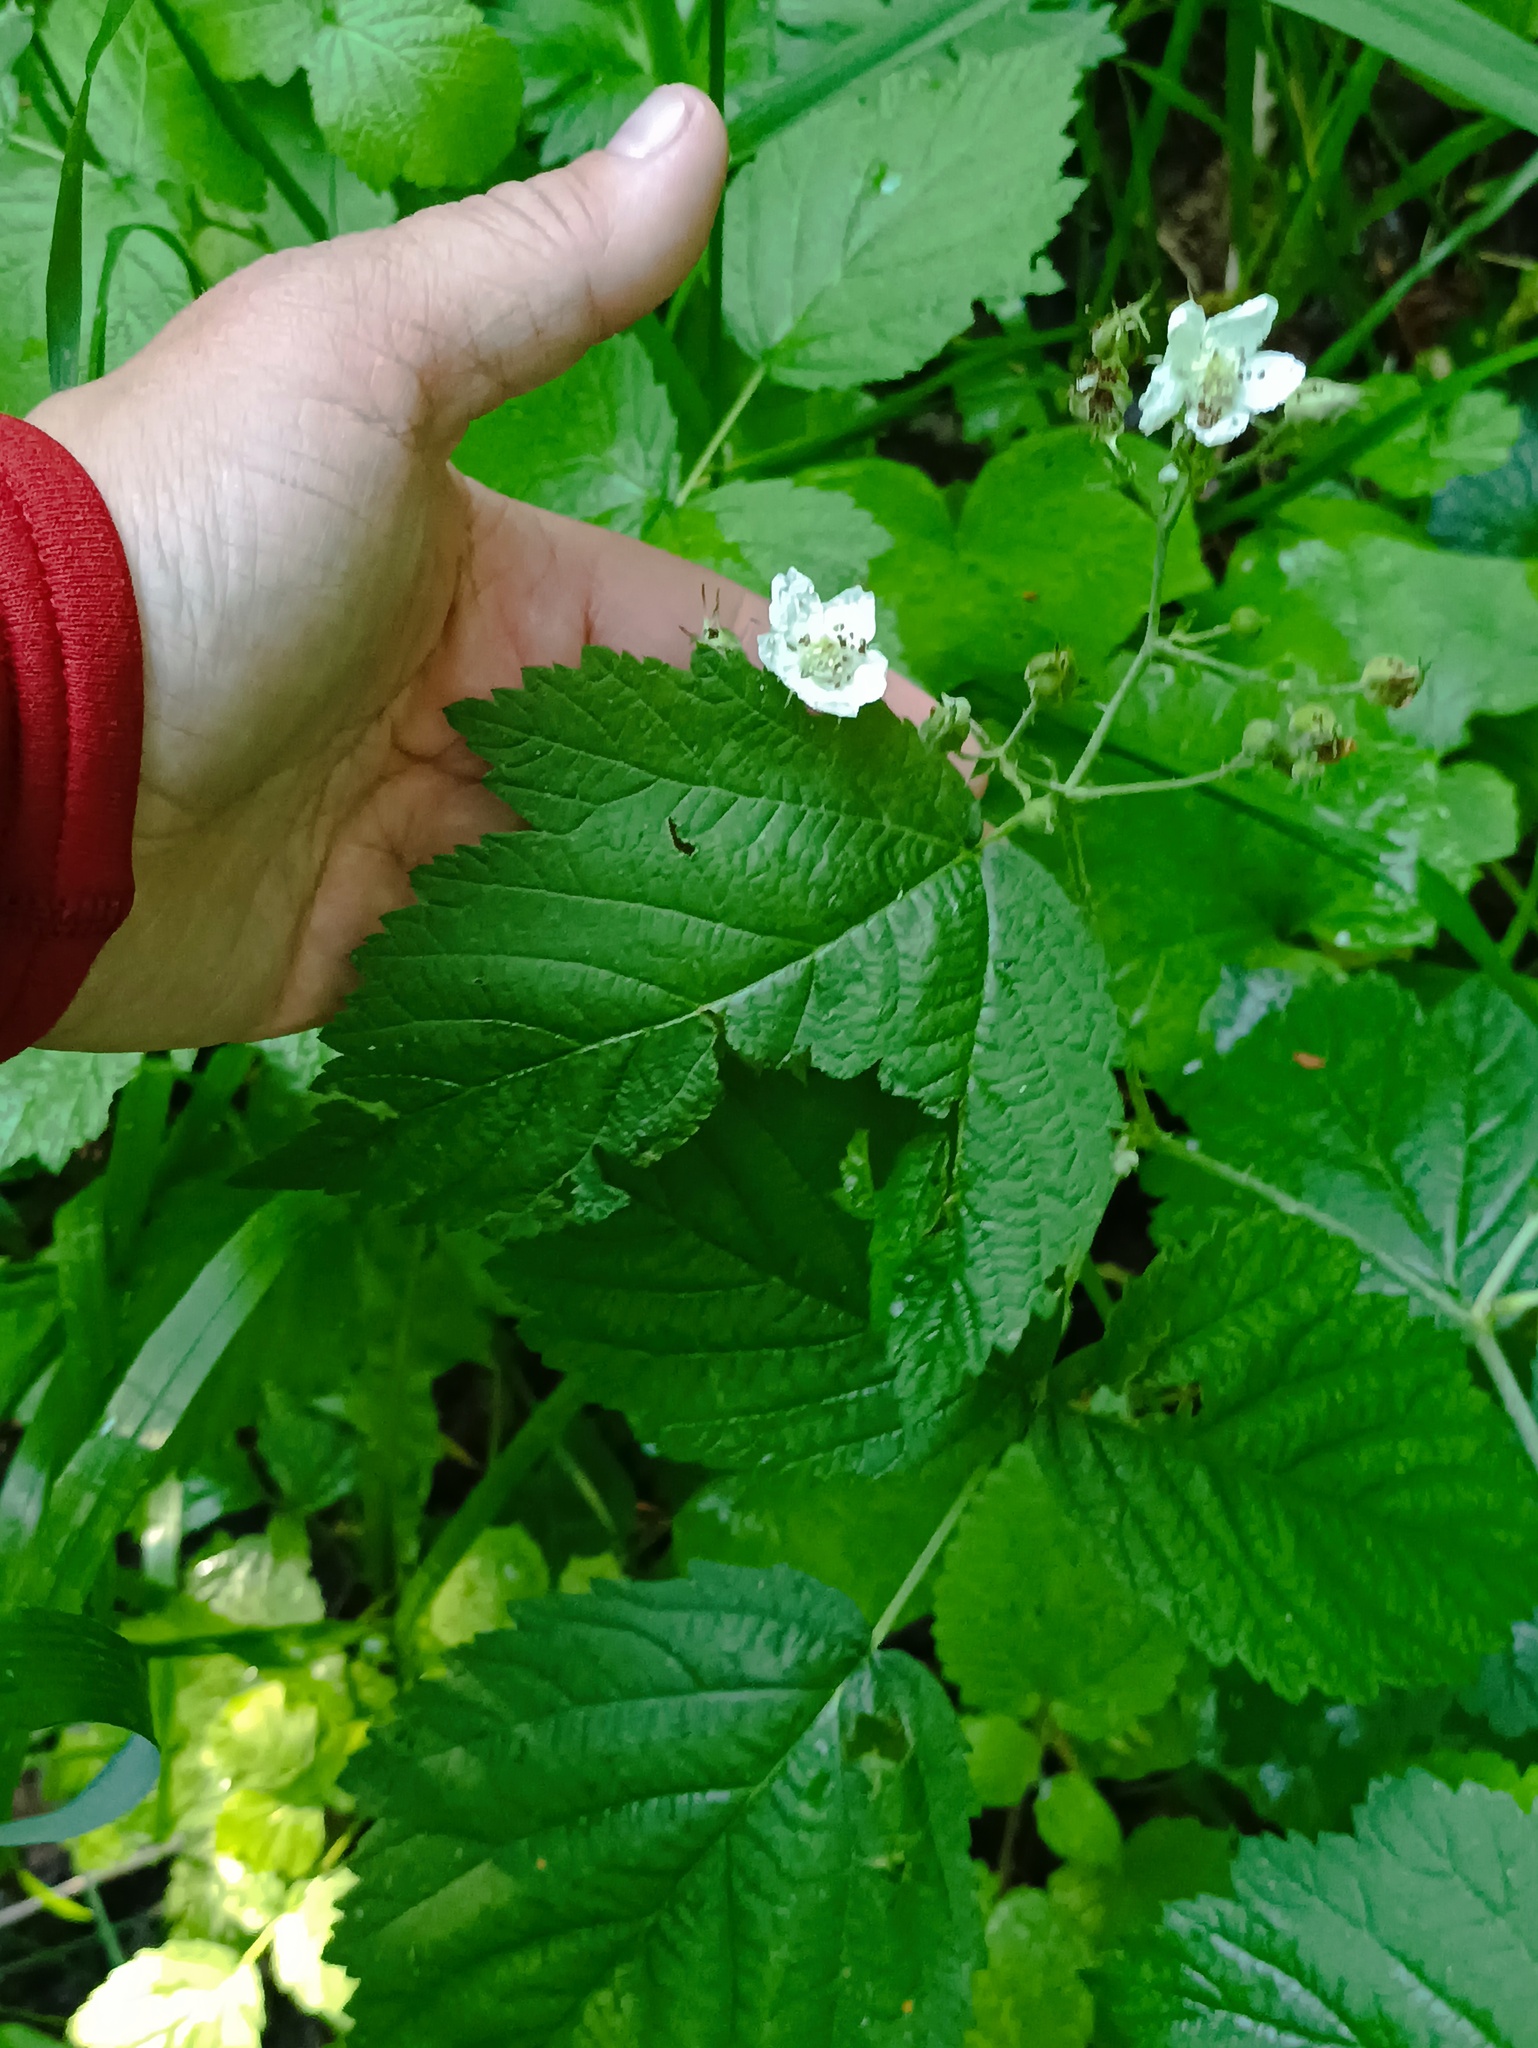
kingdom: Plantae
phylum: Tracheophyta
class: Magnoliopsida
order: Rosales
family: Rosaceae
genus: Rubus
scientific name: Rubus caesius
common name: Dewberry
